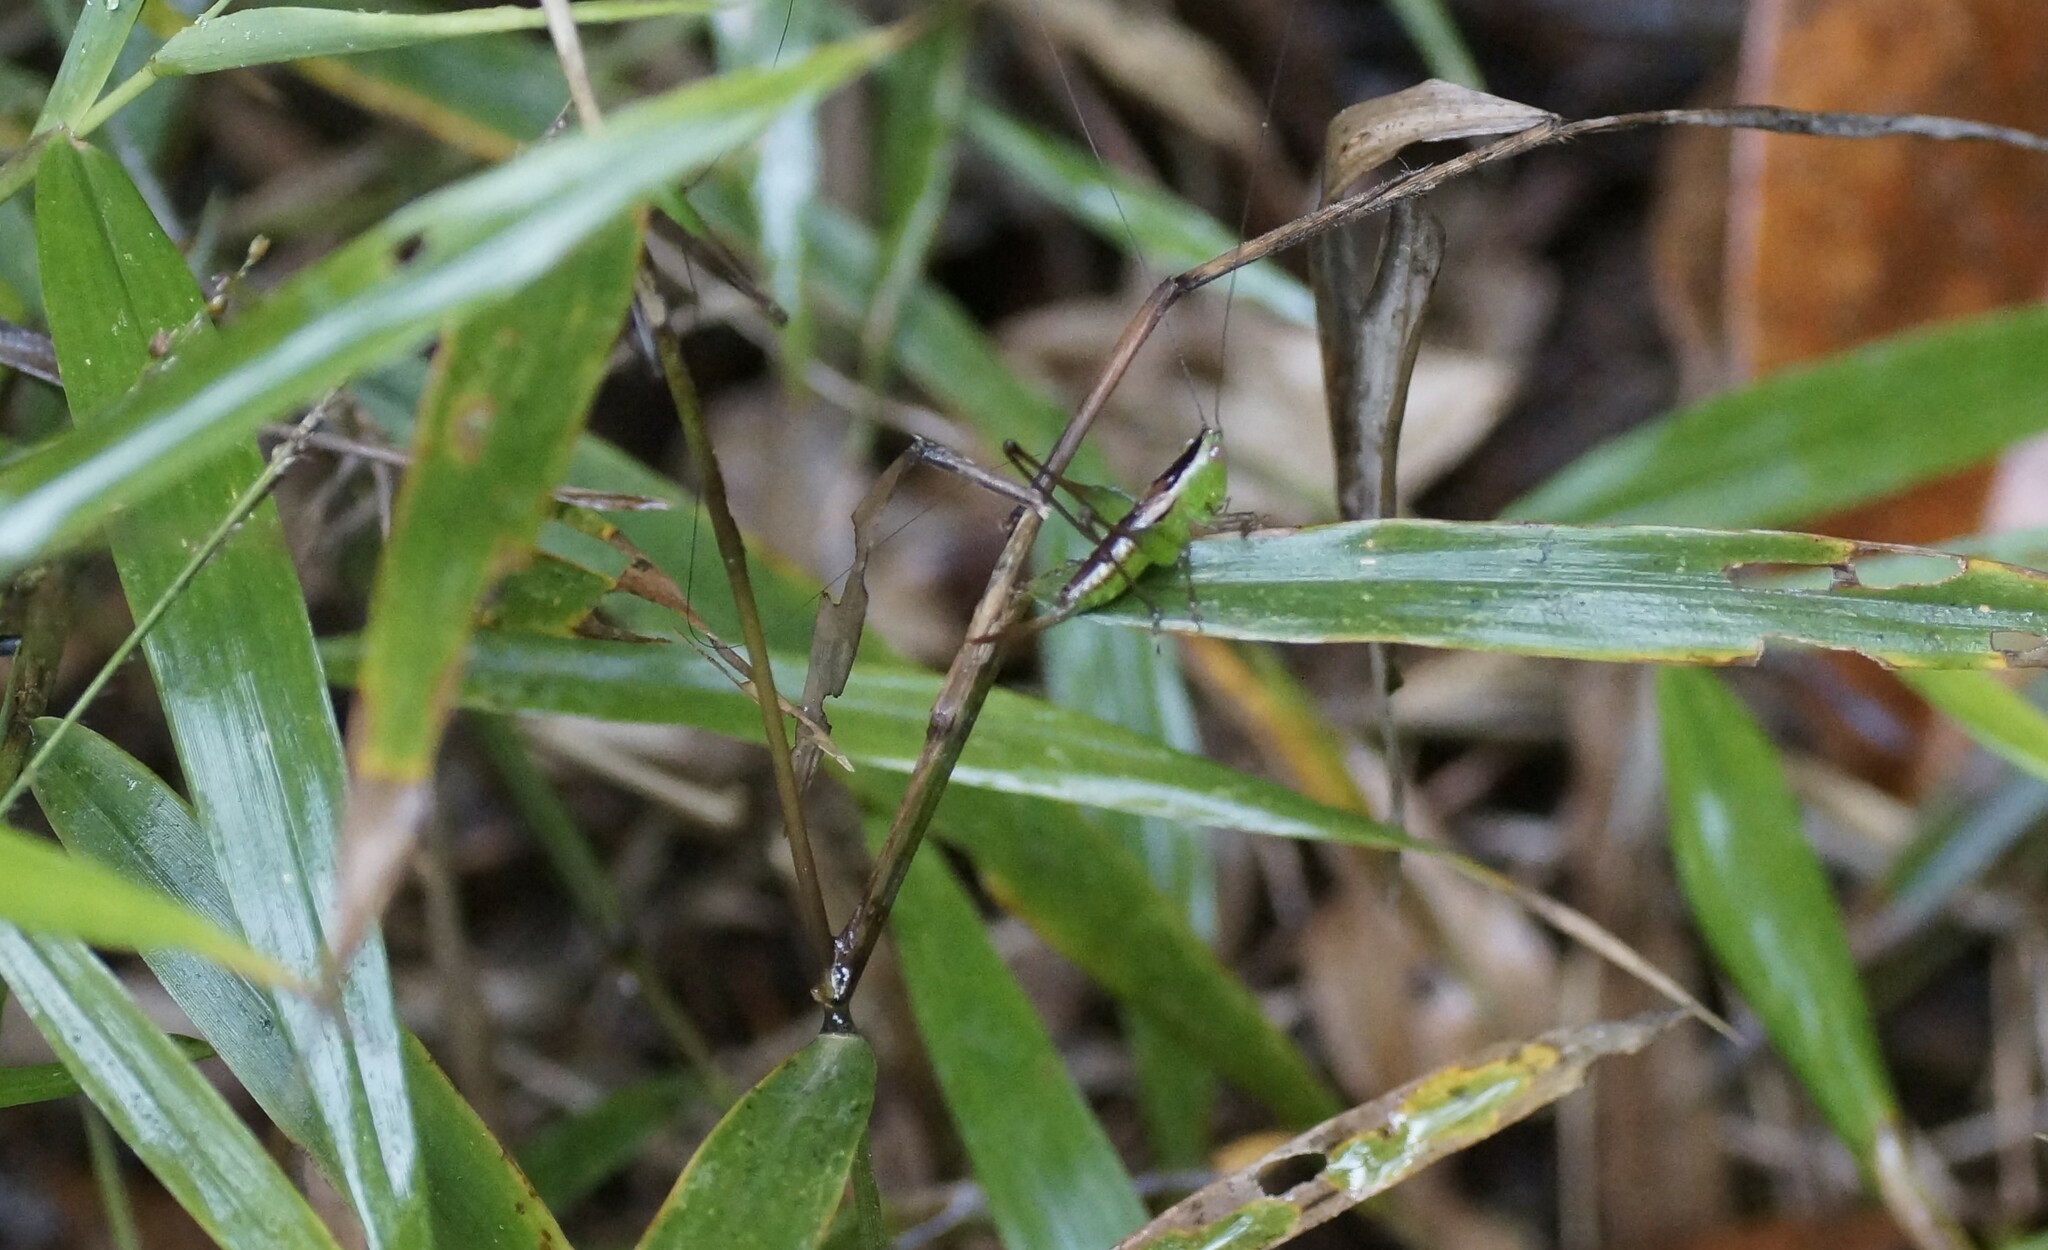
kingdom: Animalia
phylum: Arthropoda
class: Insecta
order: Orthoptera
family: Tettigoniidae
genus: Conocephalus
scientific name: Conocephalus semivittatus
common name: Blackish meadow katydid
